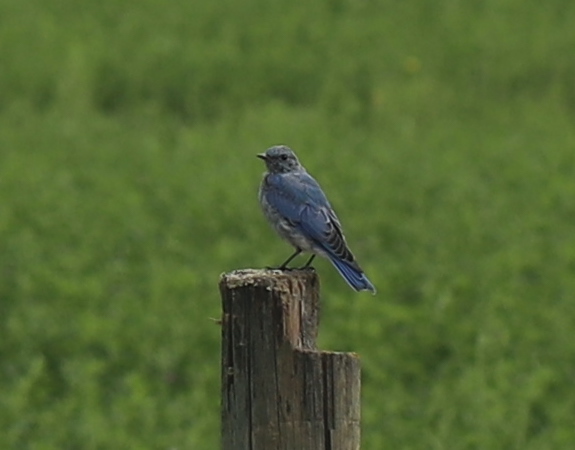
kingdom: Animalia
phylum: Chordata
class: Aves
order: Passeriformes
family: Turdidae
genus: Sialia
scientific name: Sialia currucoides
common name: Mountain bluebird
